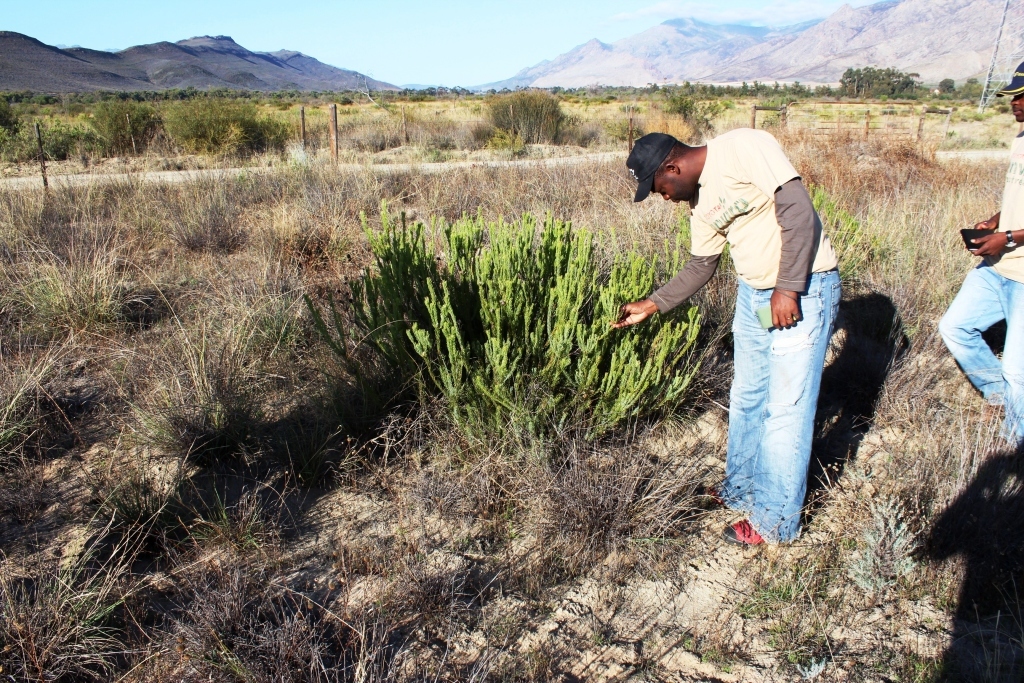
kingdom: Plantae
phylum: Tracheophyta
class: Magnoliopsida
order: Proteales
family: Proteaceae
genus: Leucadendron
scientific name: Leucadendron brunioides
